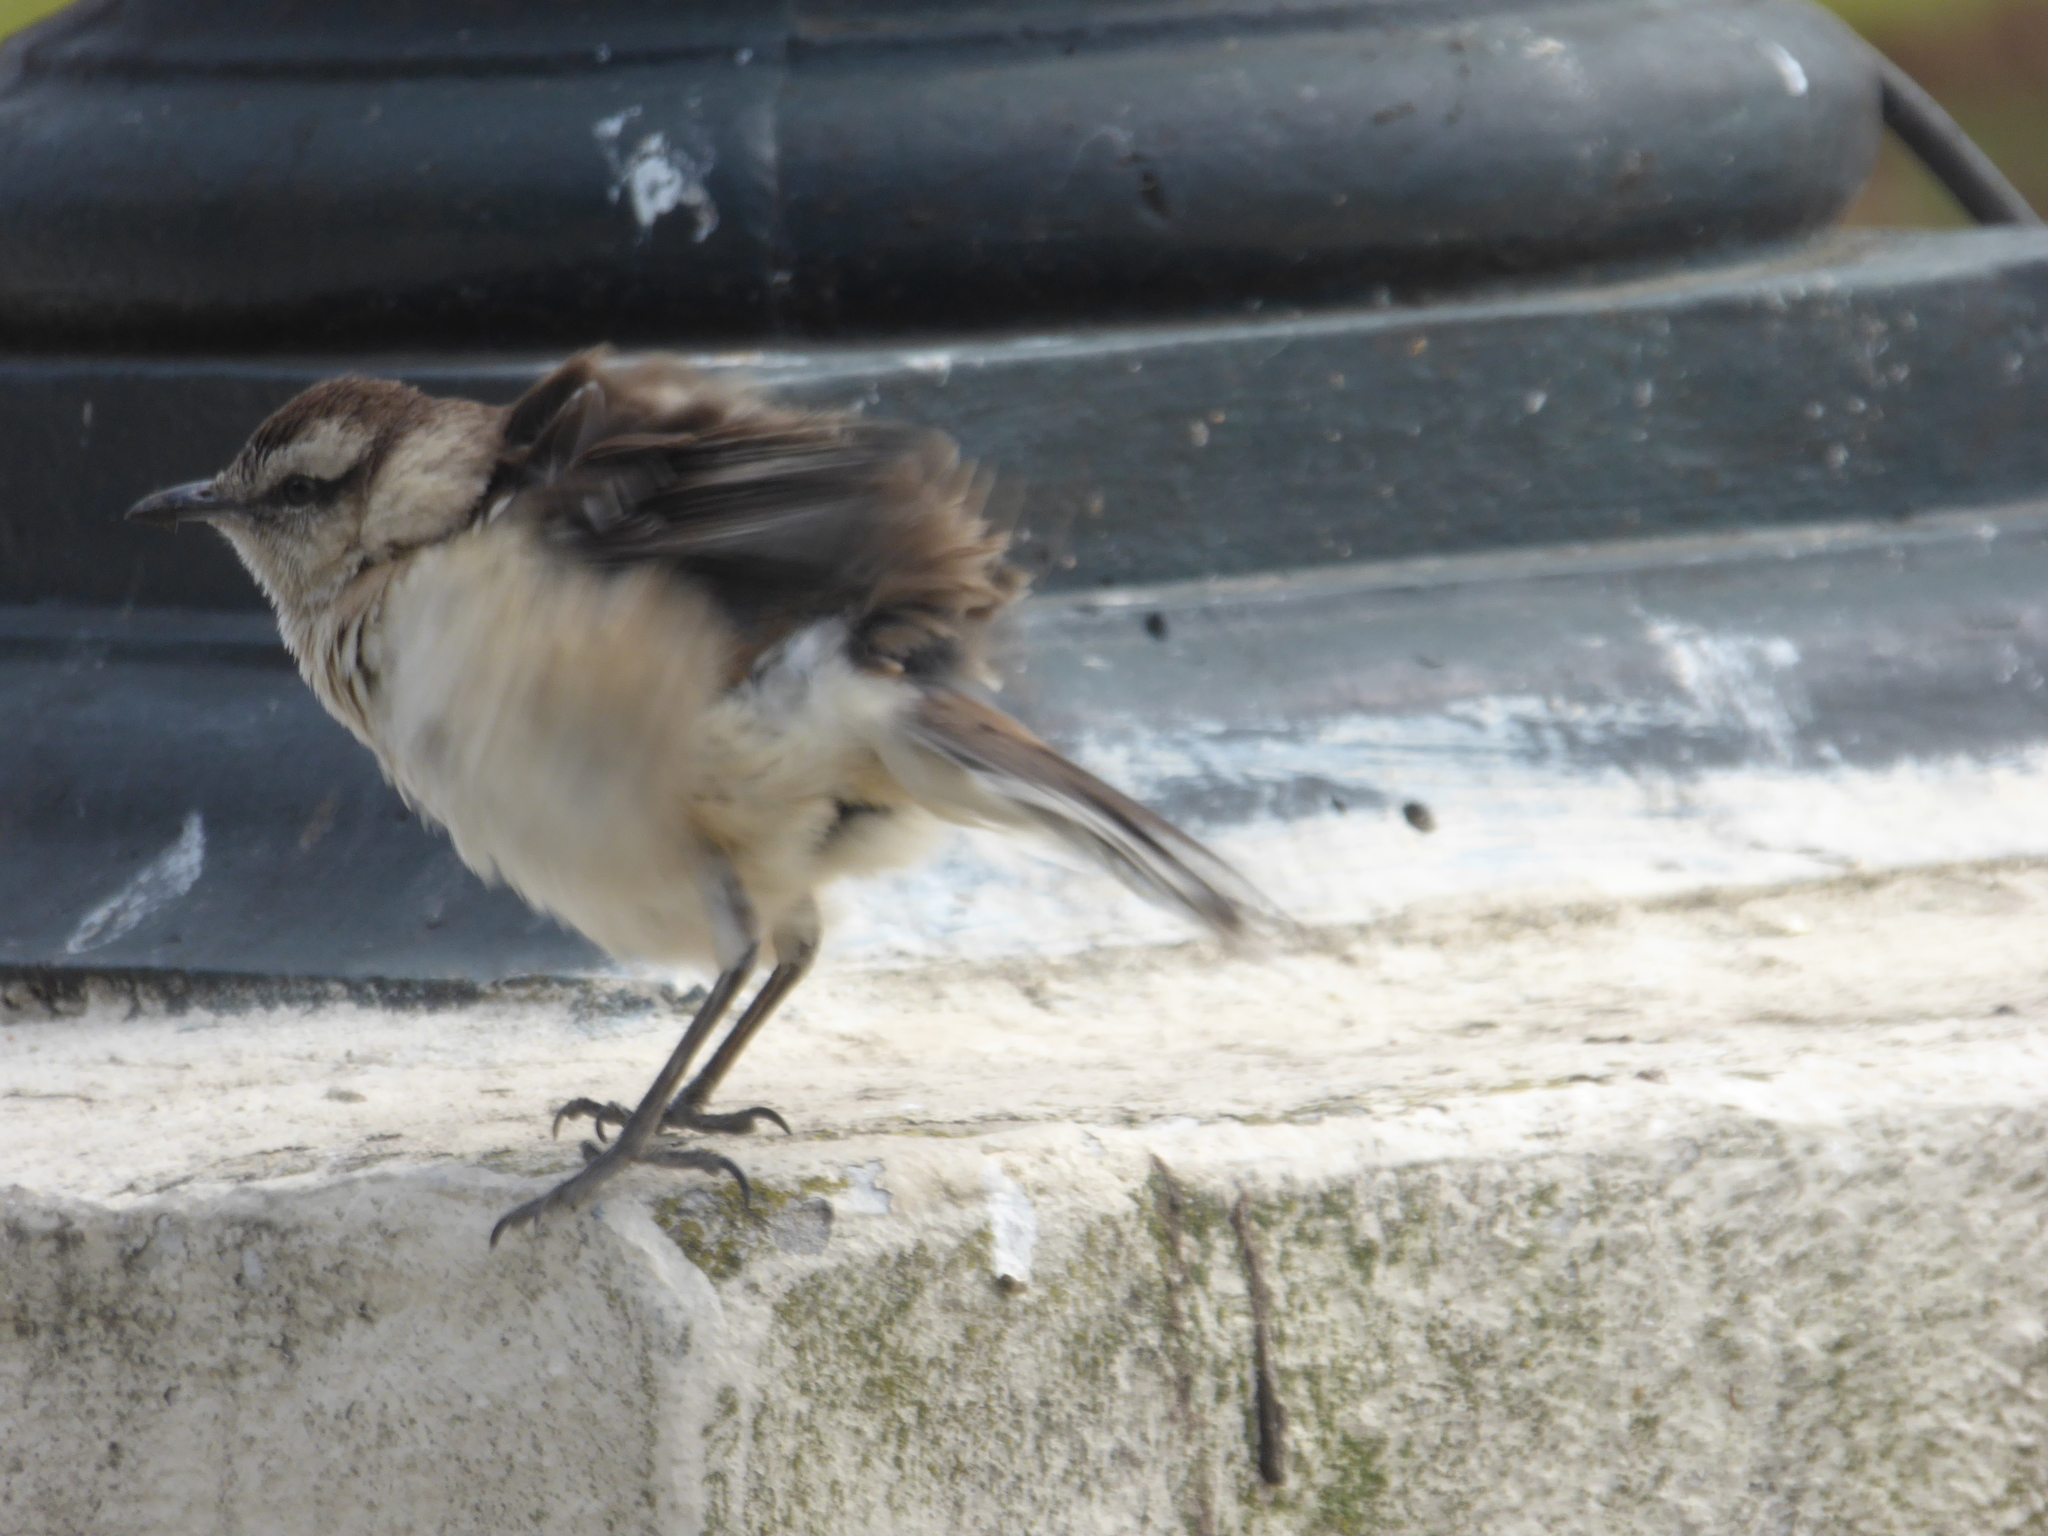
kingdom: Animalia
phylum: Chordata
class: Aves
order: Passeriformes
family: Mimidae
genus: Mimus
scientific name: Mimus saturninus
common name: Chalk-browed mockingbird
